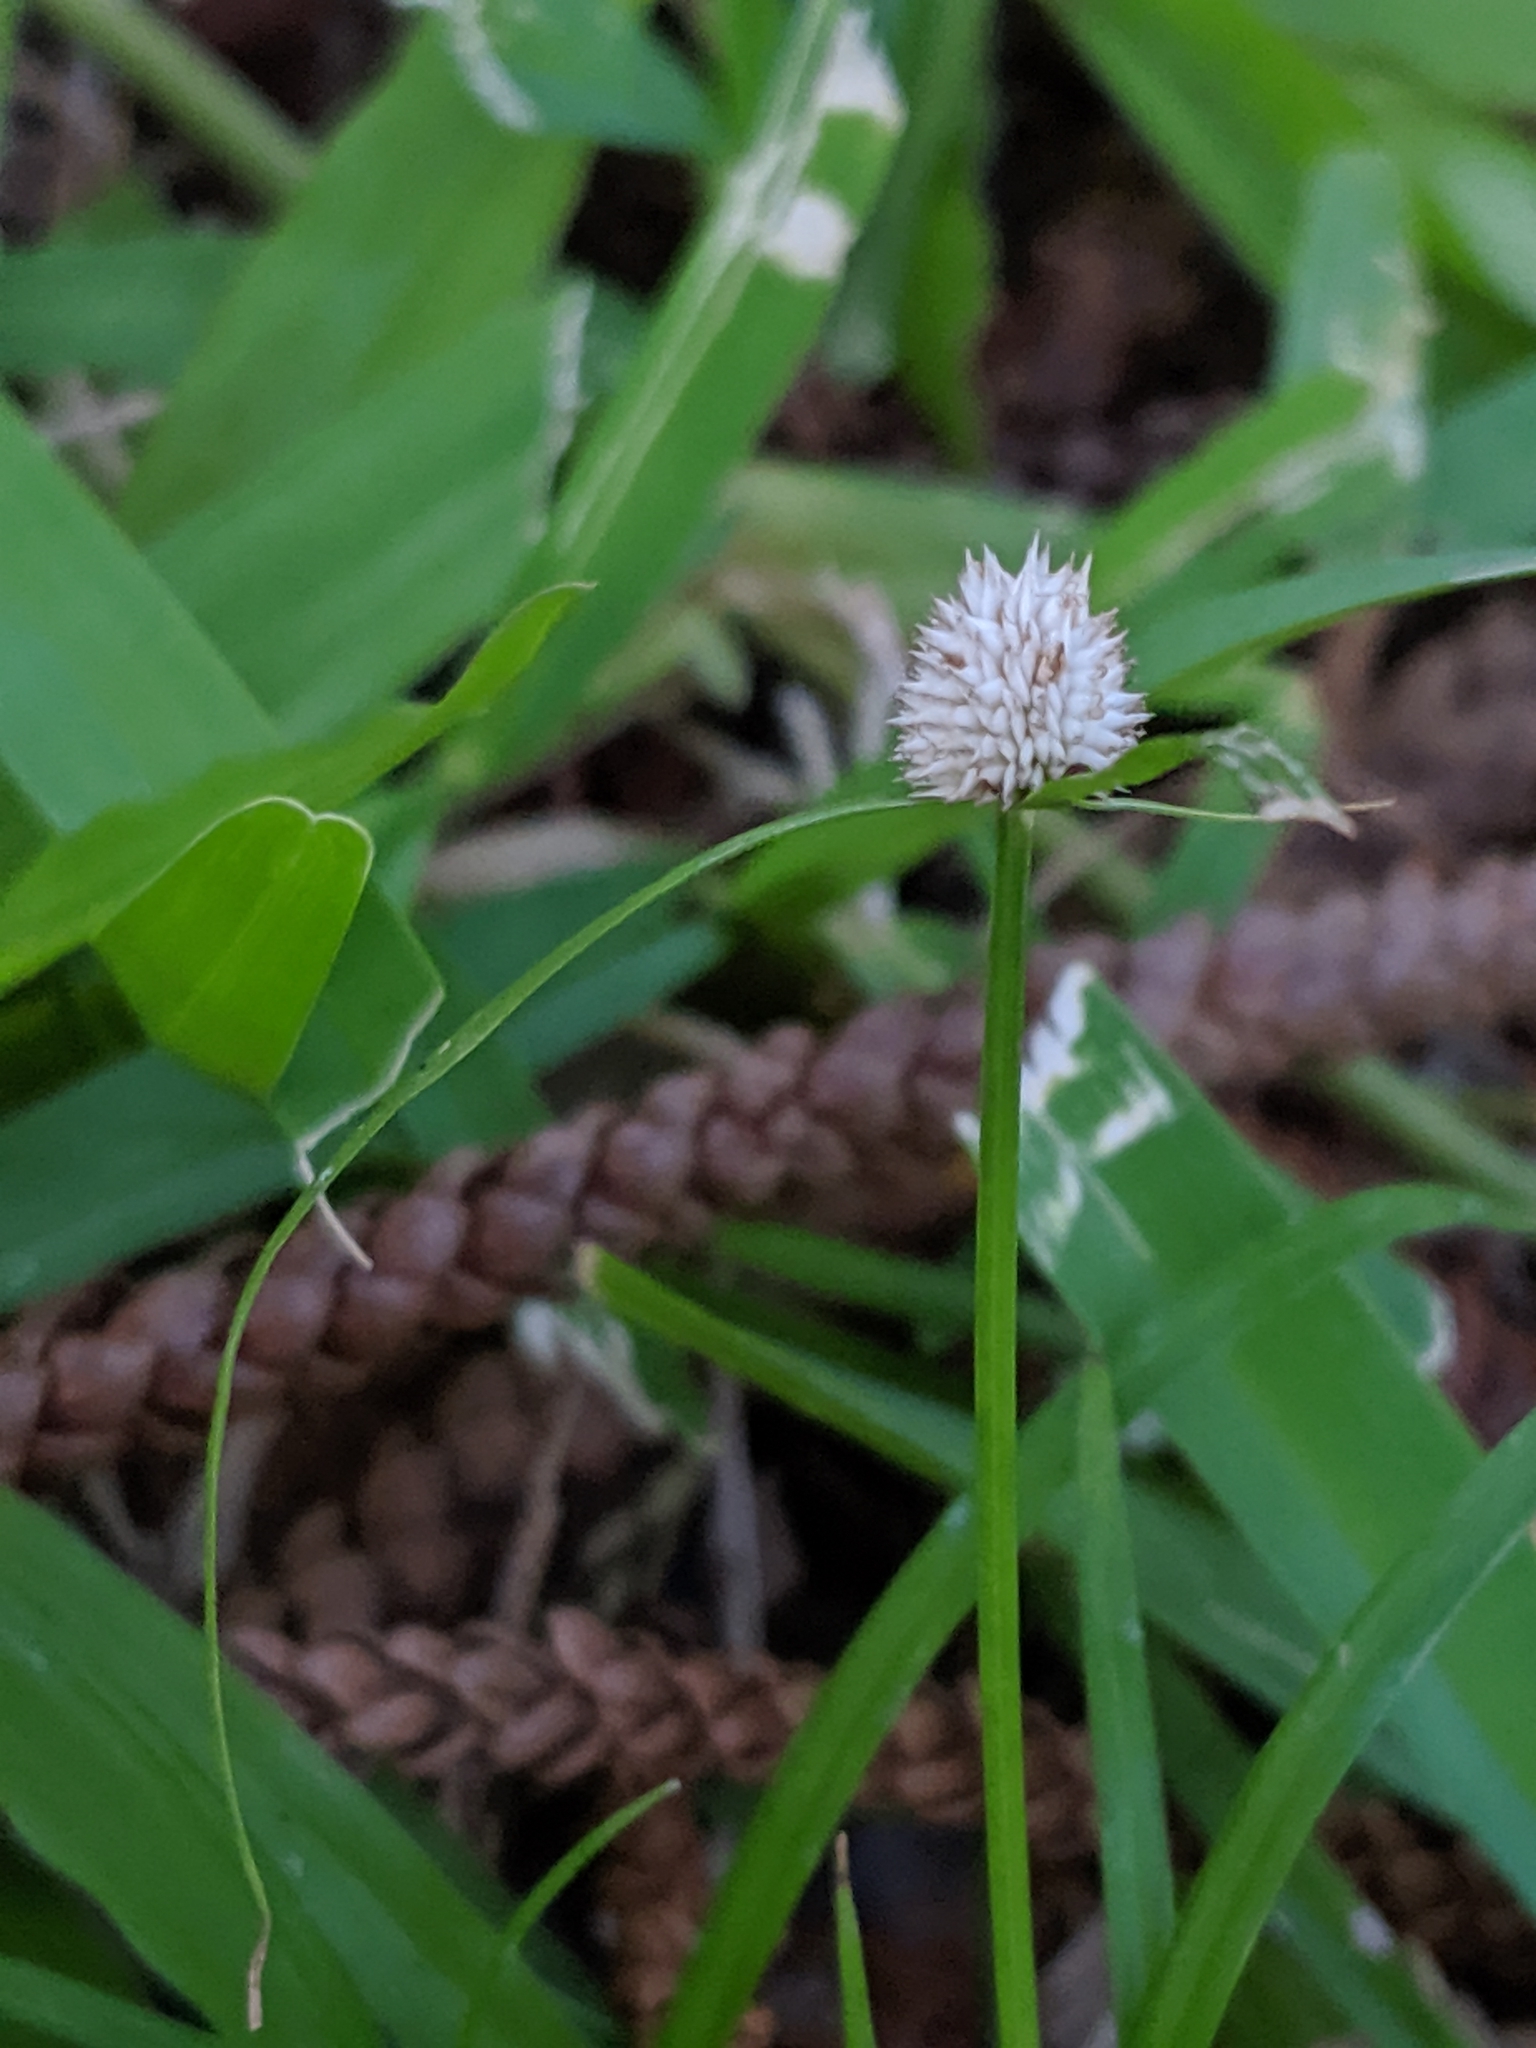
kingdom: Plantae
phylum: Tracheophyta
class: Liliopsida
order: Poales
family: Cyperaceae
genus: Cyperus
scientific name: Cyperus mindorensis
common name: Flatsedge
